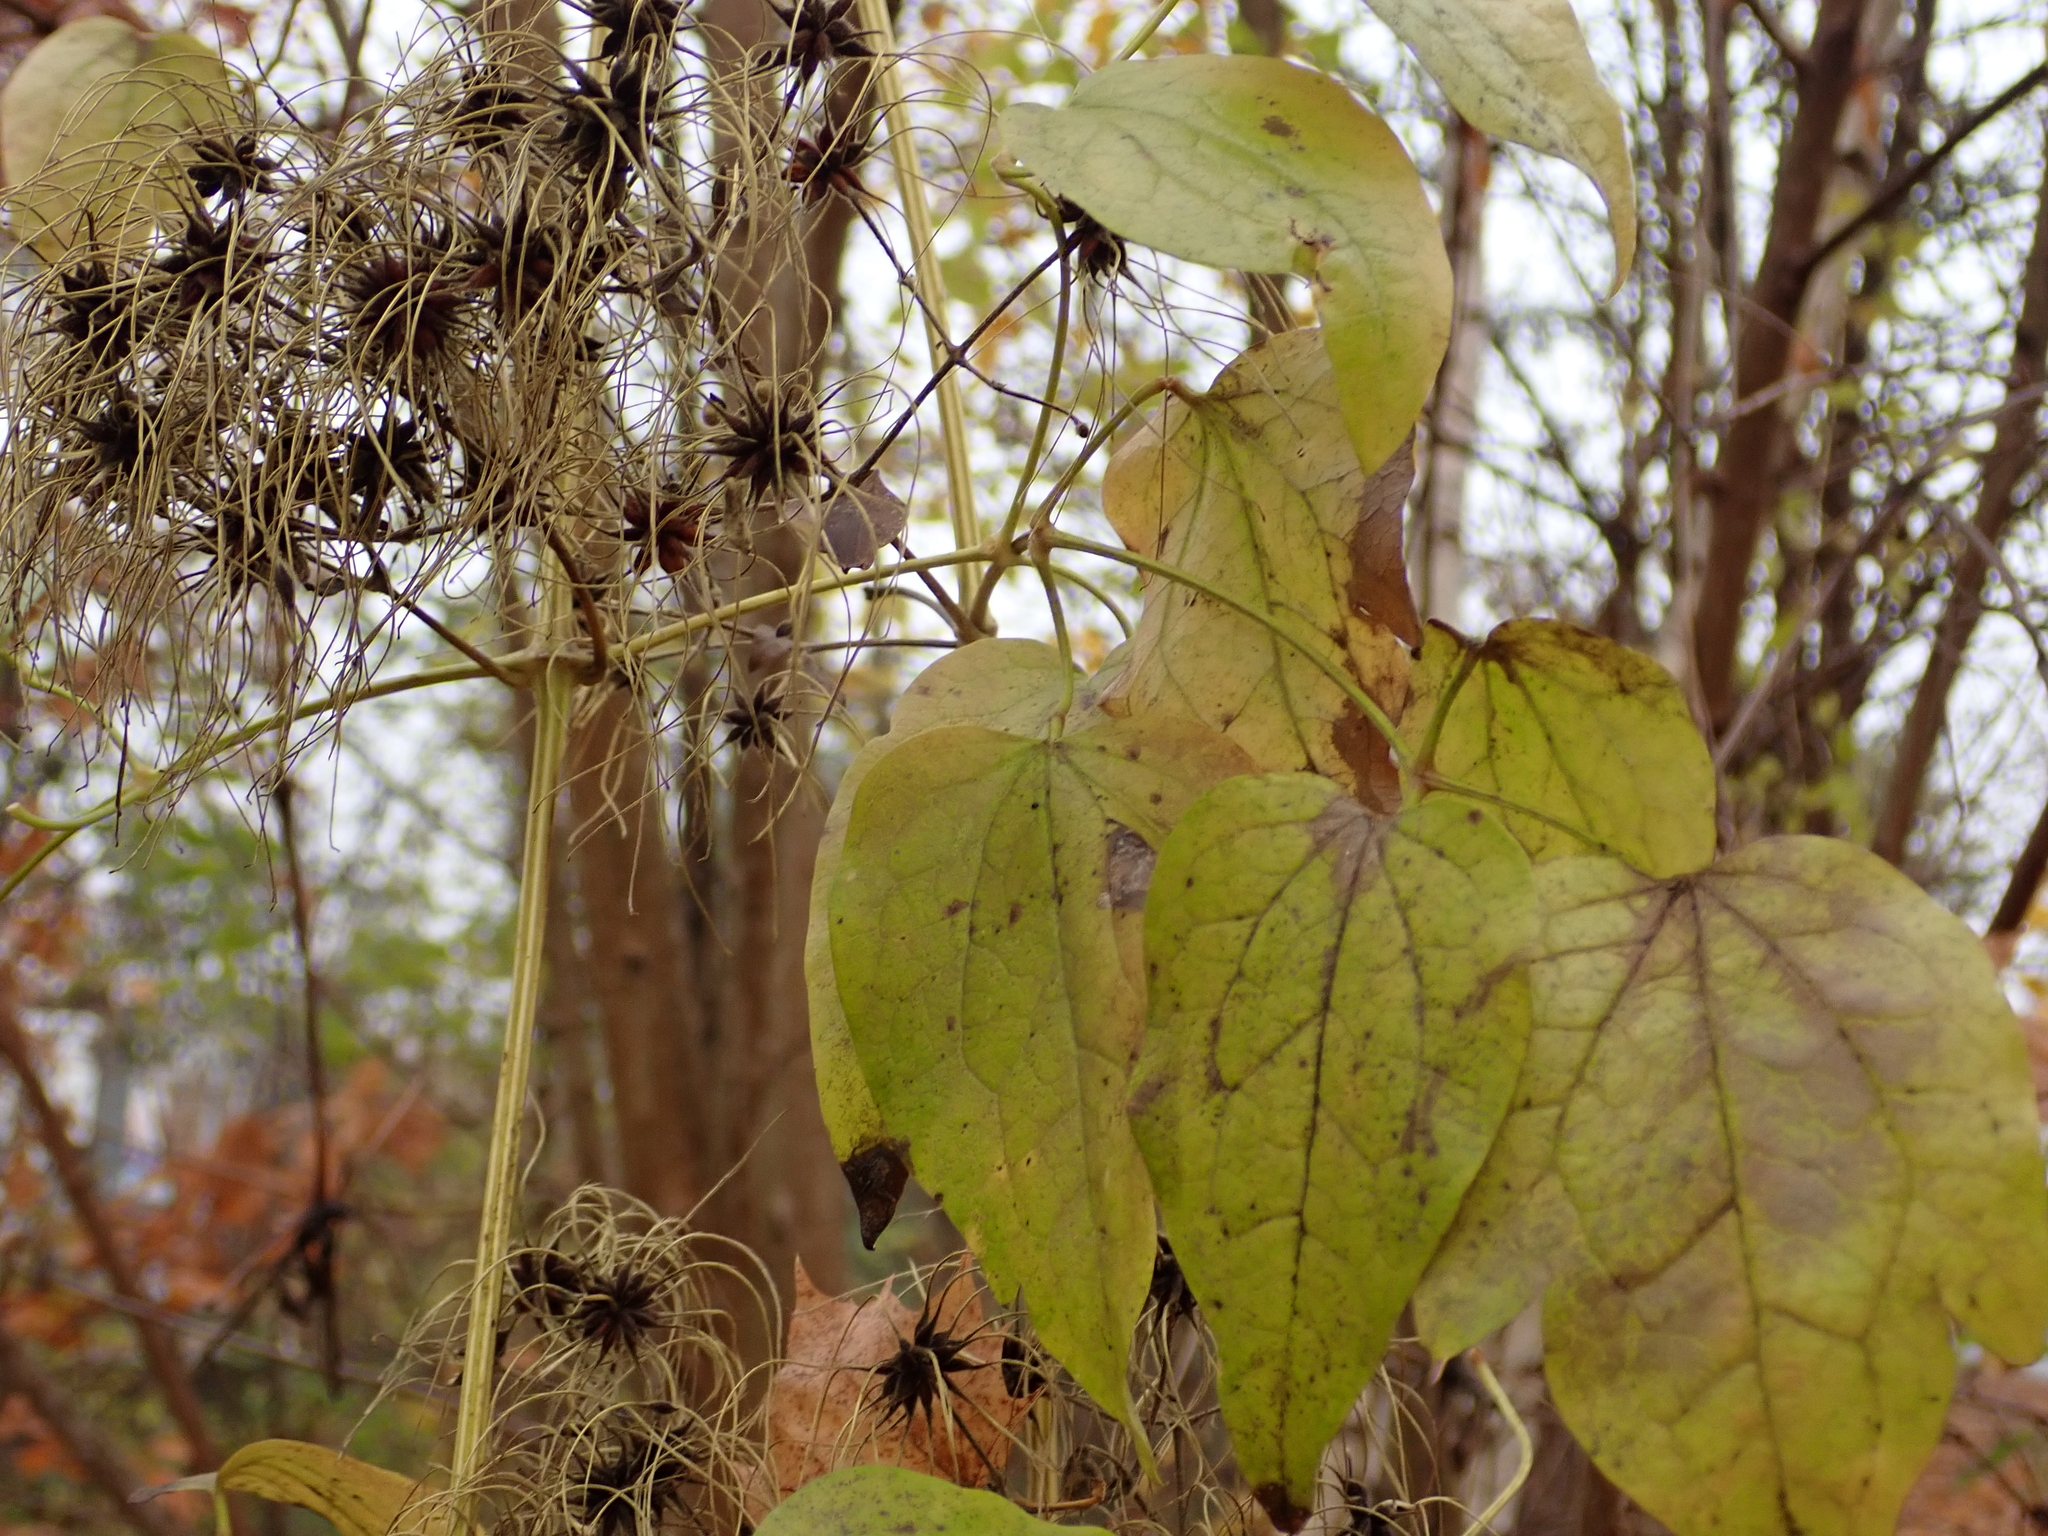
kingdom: Plantae
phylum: Tracheophyta
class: Magnoliopsida
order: Ranunculales
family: Ranunculaceae
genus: Clematis
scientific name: Clematis vitalba
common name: Evergreen clematis
